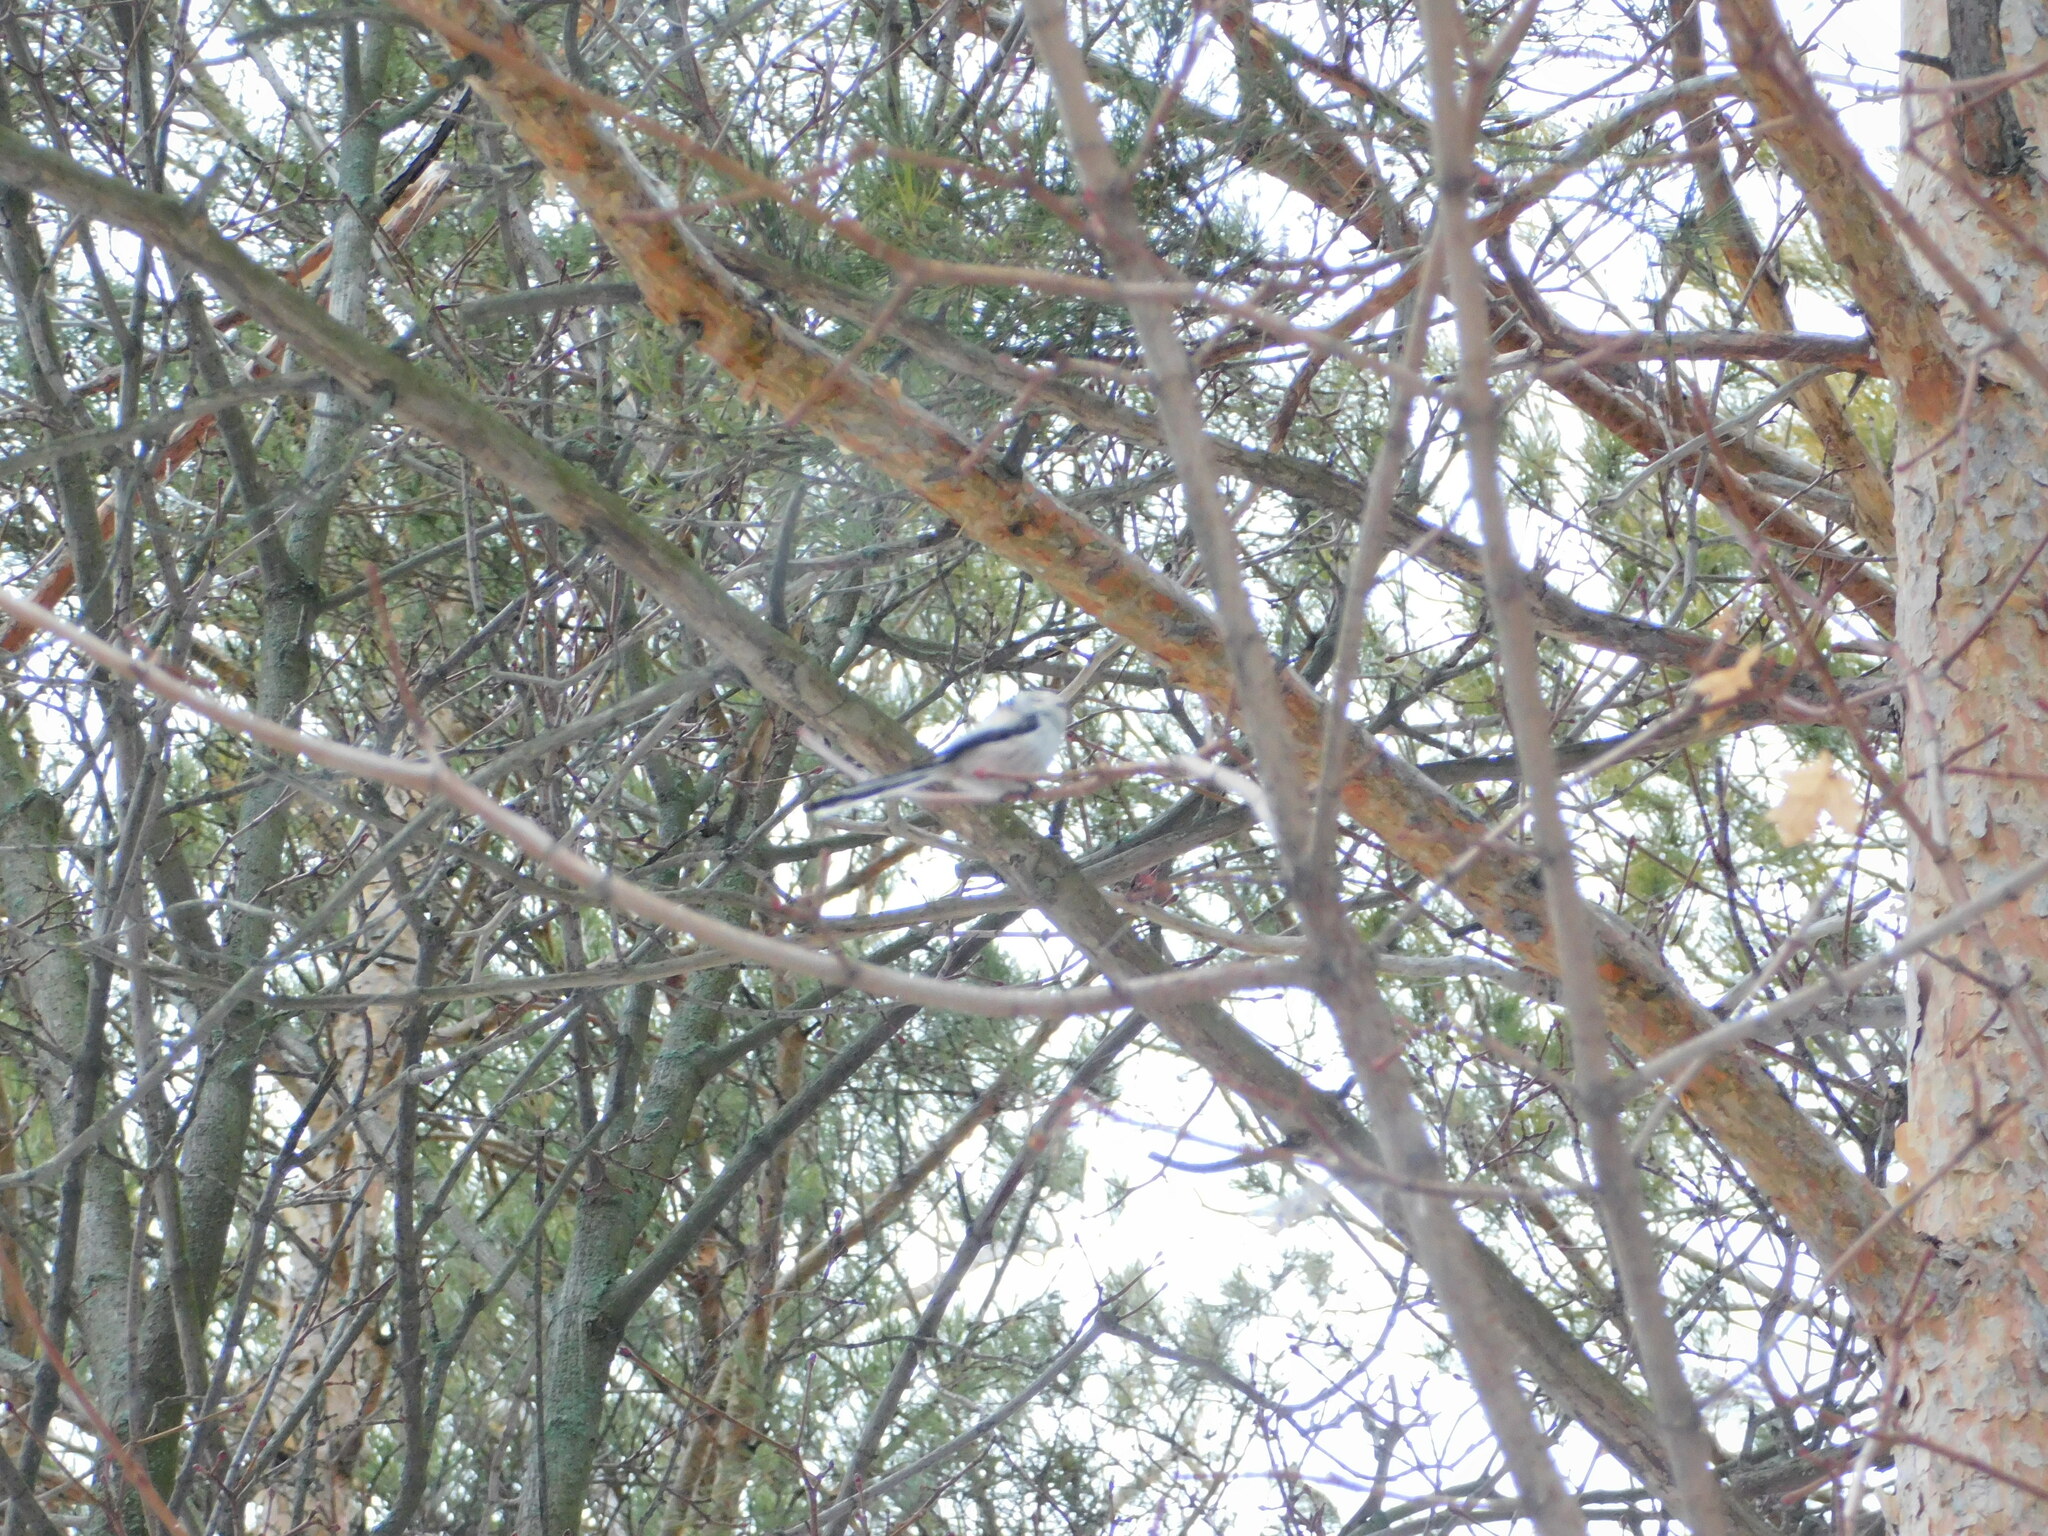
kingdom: Animalia
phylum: Chordata
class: Aves
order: Passeriformes
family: Aegithalidae
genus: Aegithalos
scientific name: Aegithalos caudatus
